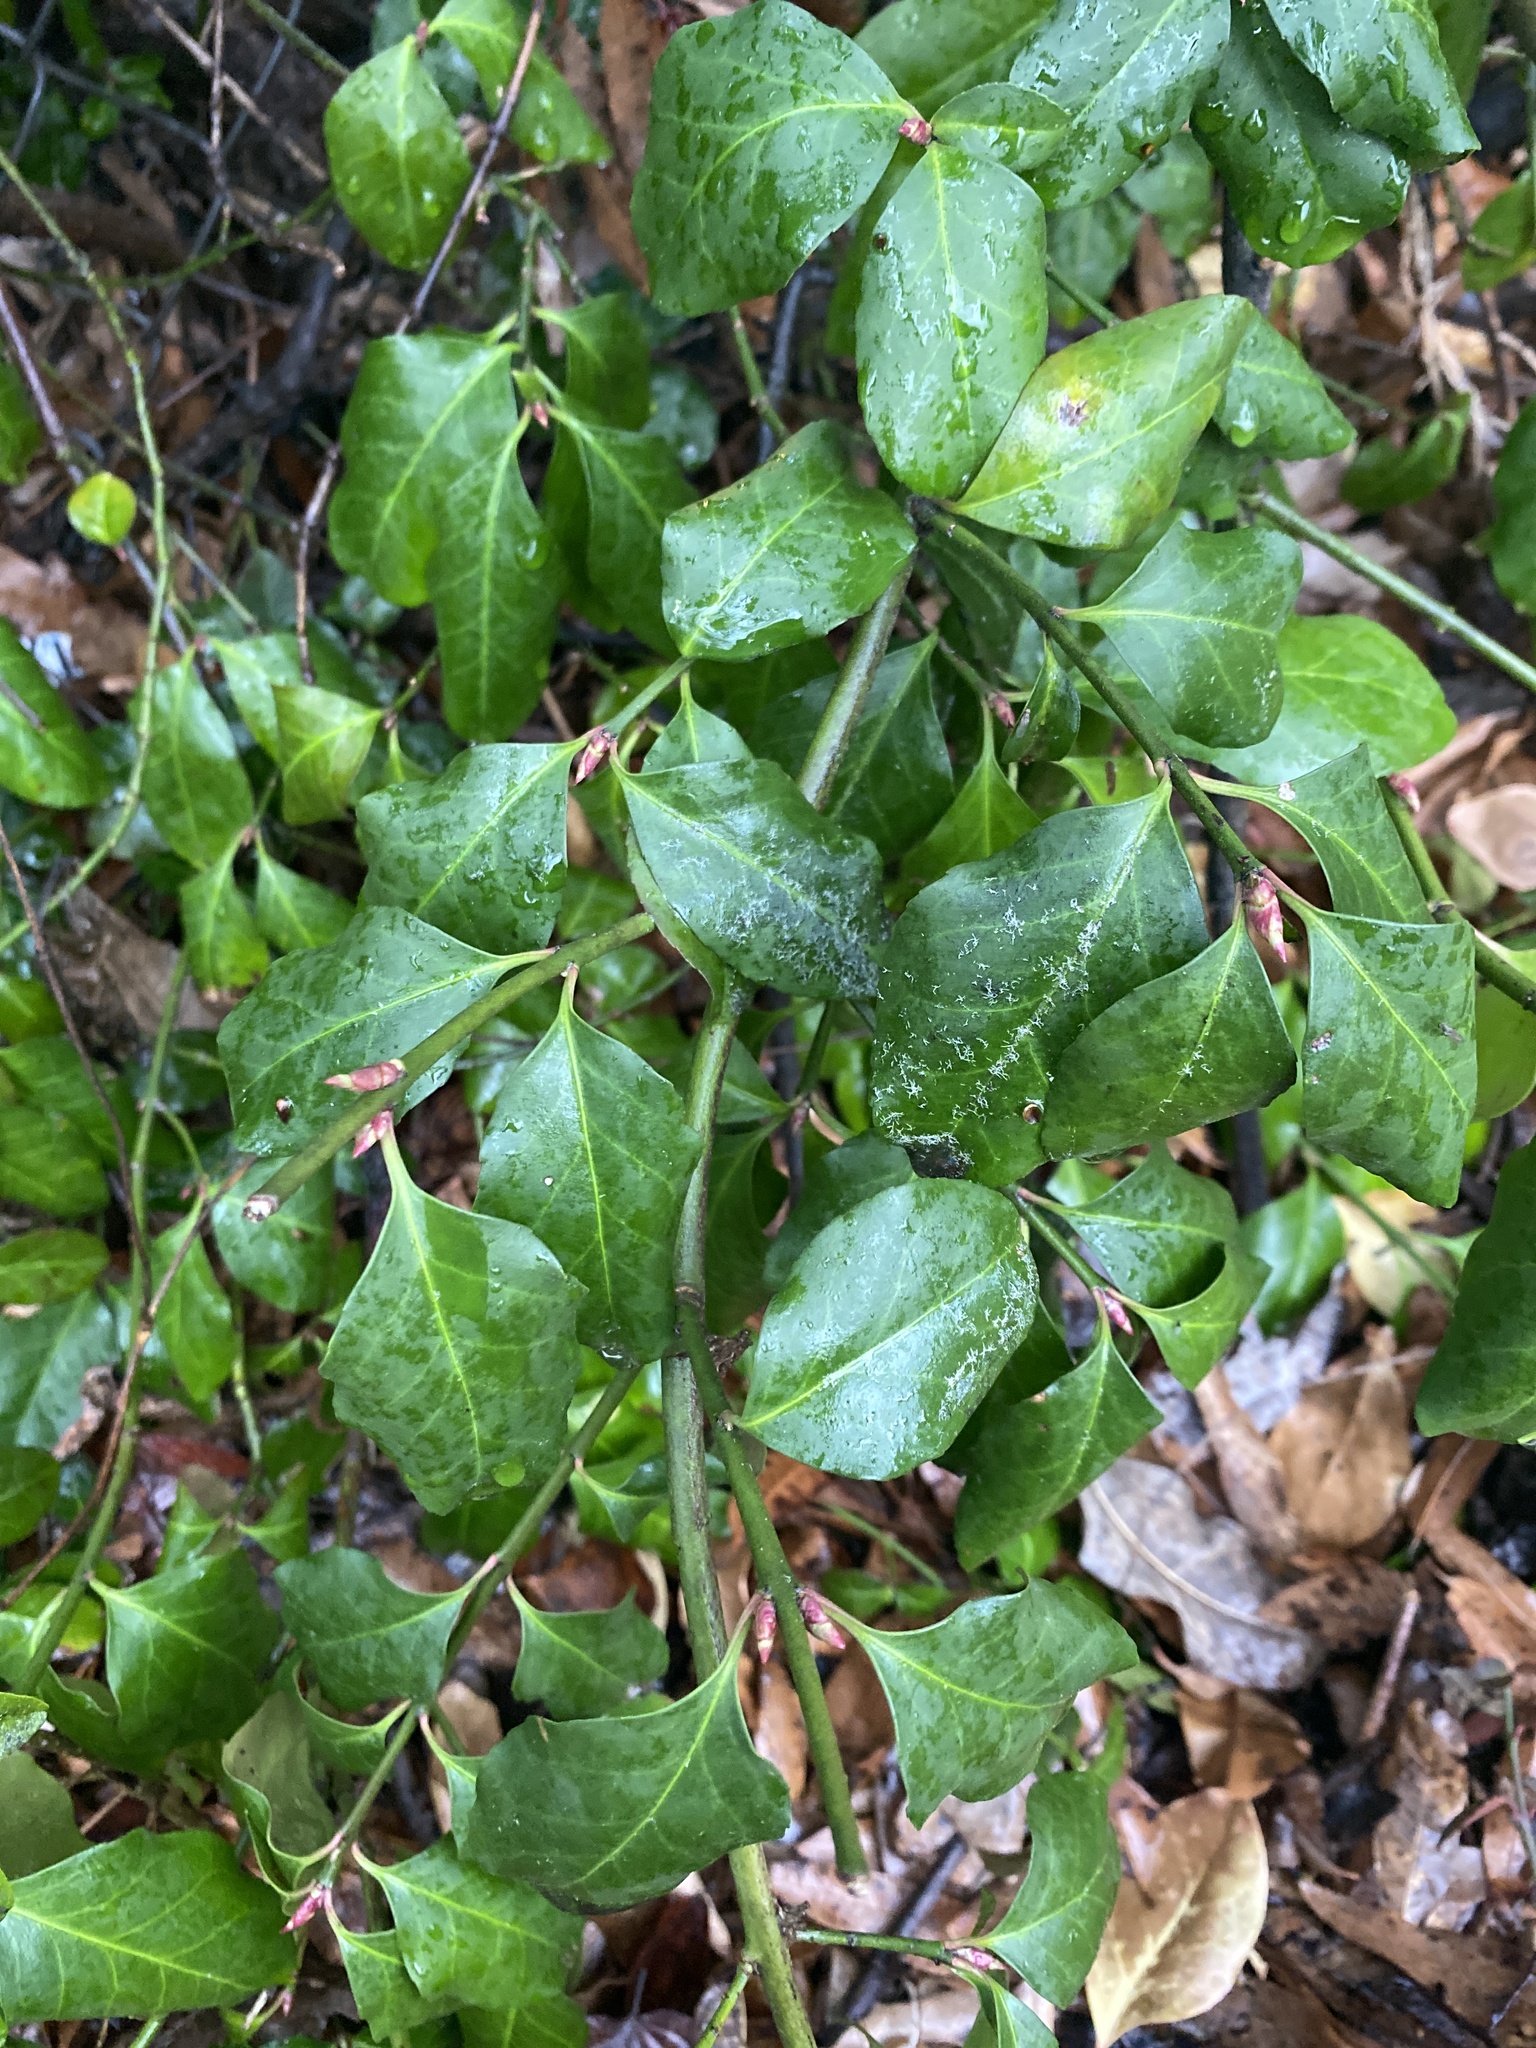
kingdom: Plantae
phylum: Tracheophyta
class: Magnoliopsida
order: Celastrales
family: Celastraceae
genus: Euonymus
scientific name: Euonymus fortunei
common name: Climbing euonymus
